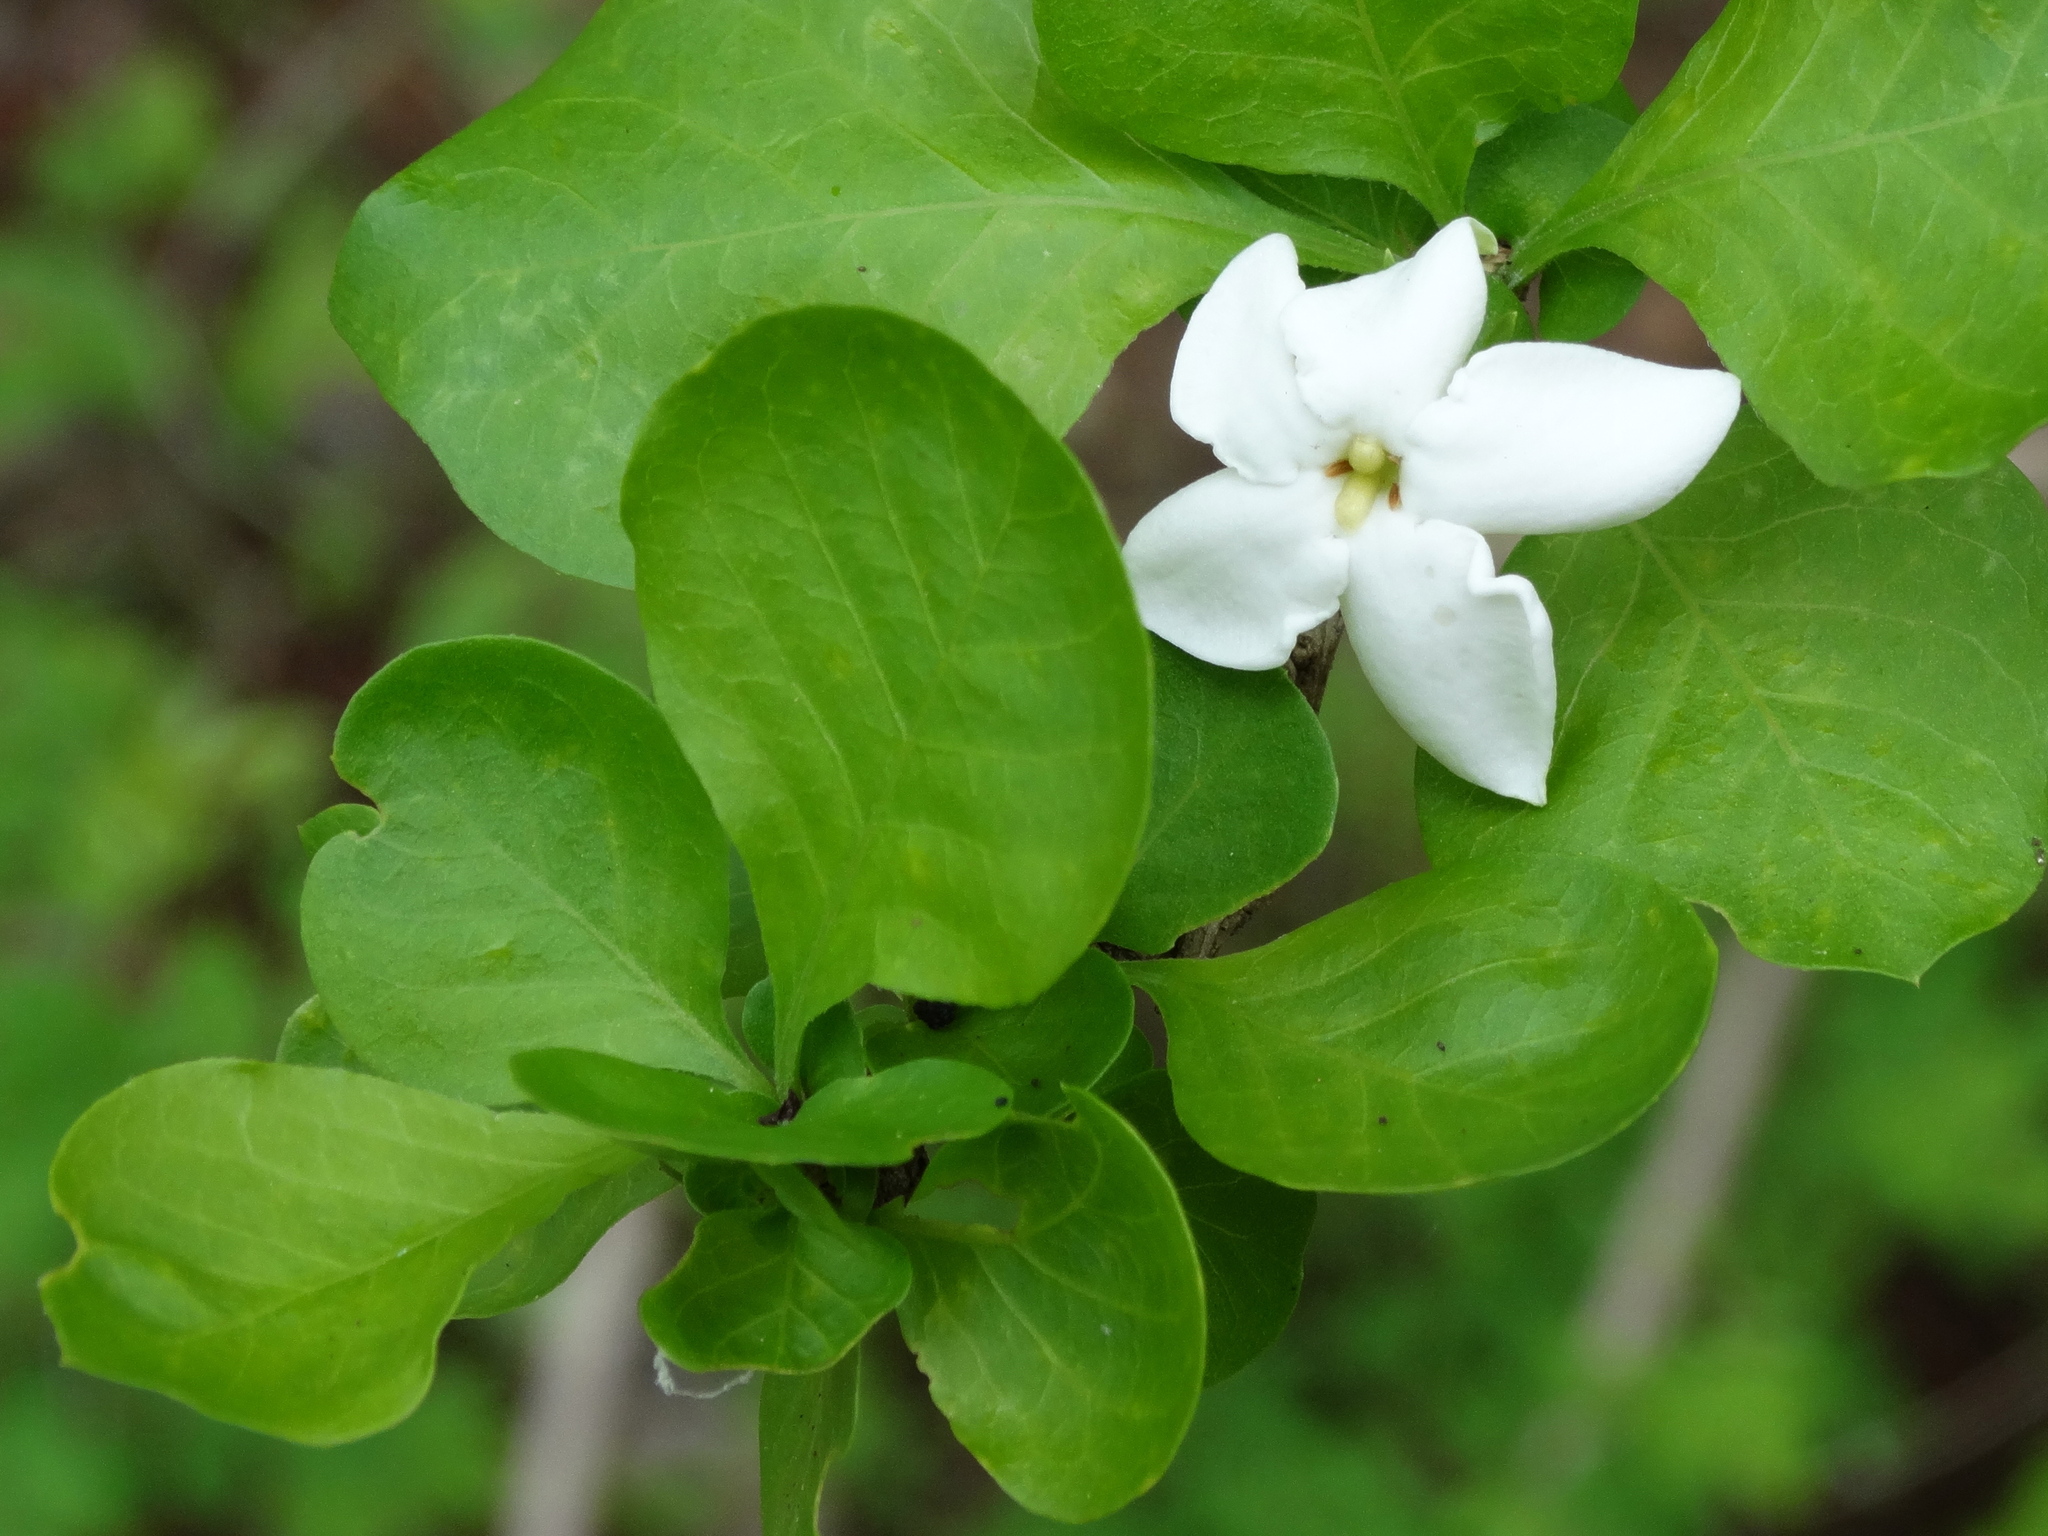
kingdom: Plantae
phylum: Tracheophyta
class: Magnoliopsida
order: Gentianales
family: Rubiaceae
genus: Randia
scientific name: Randia
